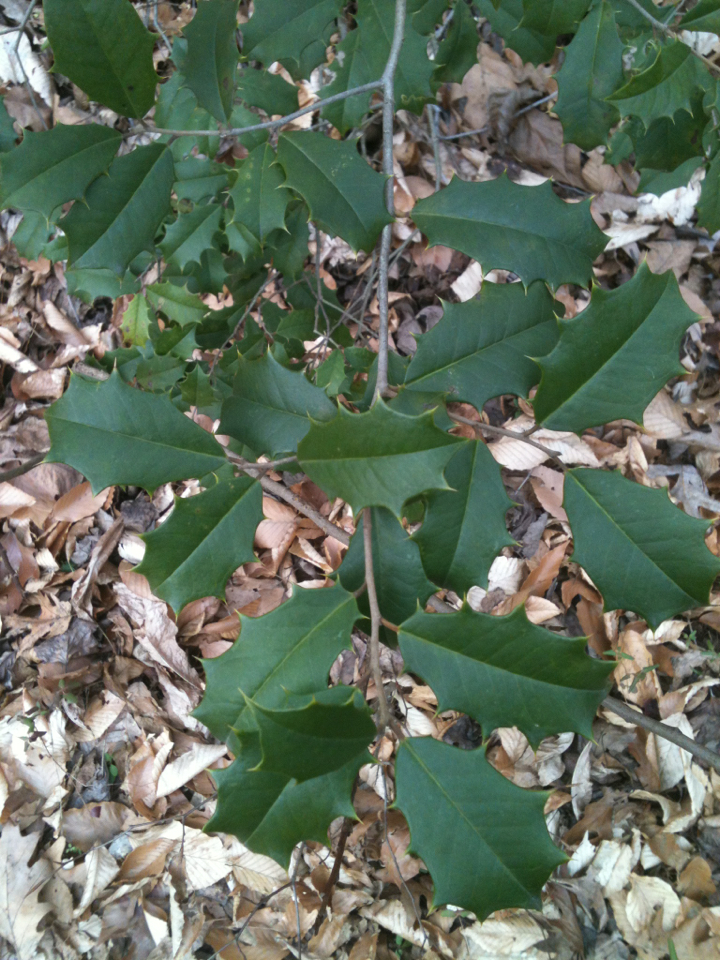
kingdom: Plantae
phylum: Tracheophyta
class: Magnoliopsida
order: Aquifoliales
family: Aquifoliaceae
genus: Ilex
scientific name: Ilex opaca
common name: American holly
